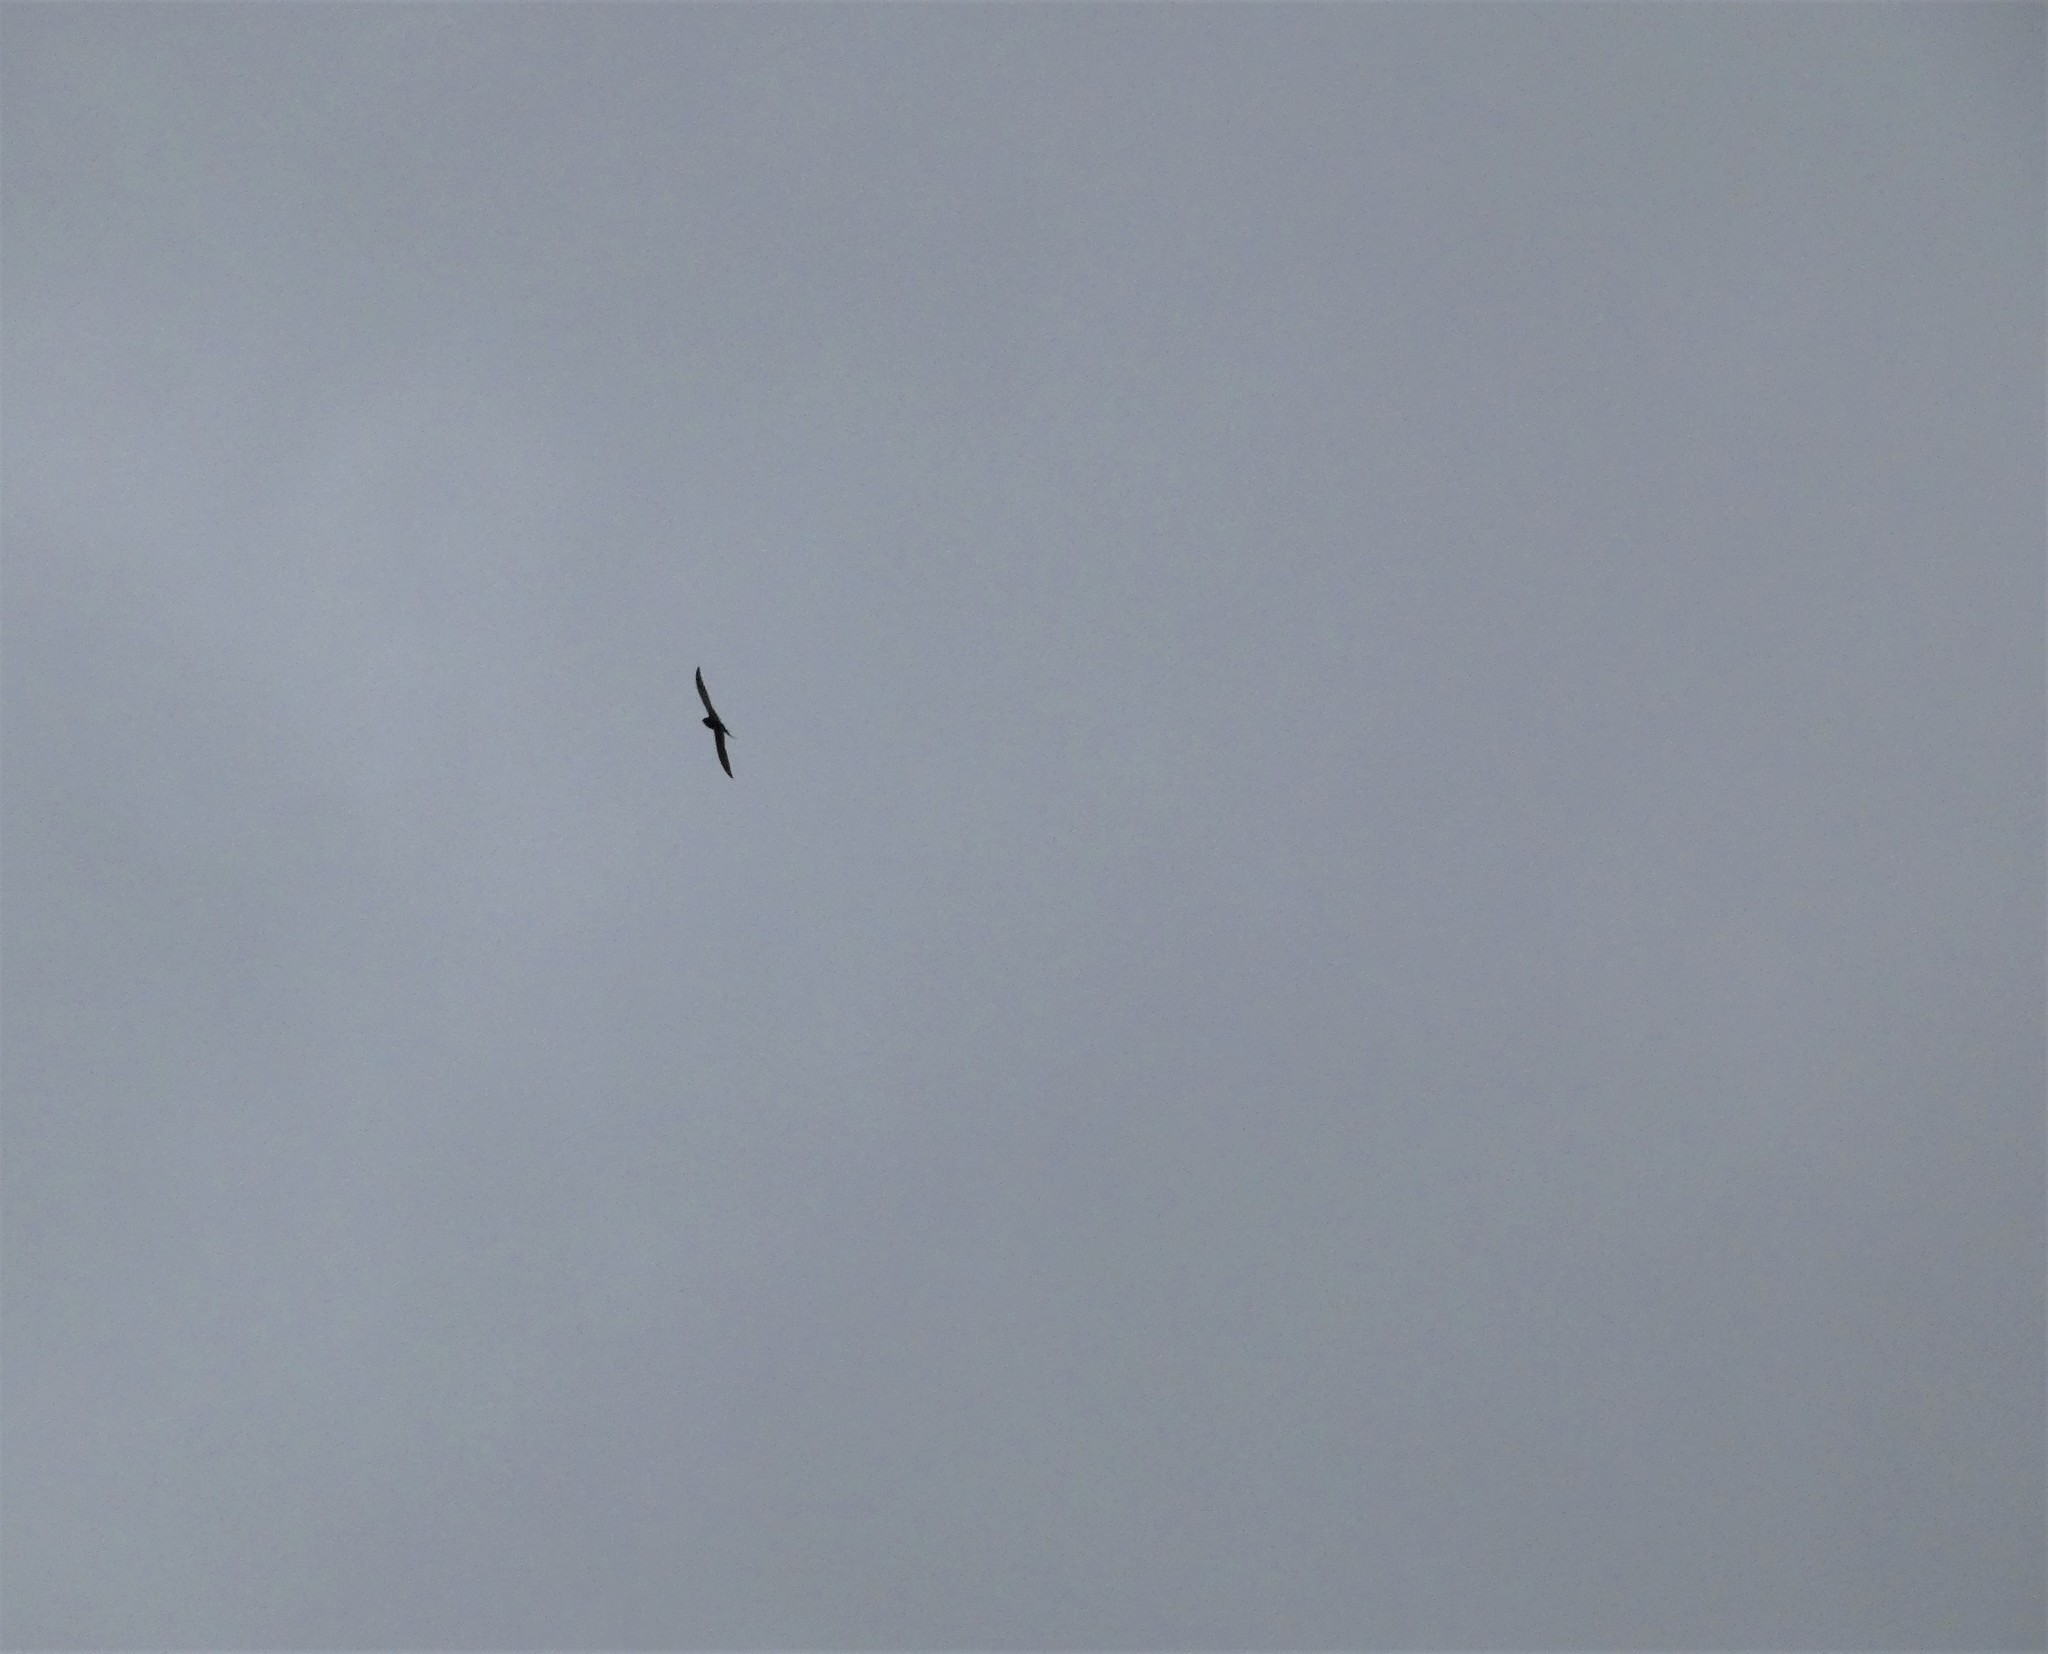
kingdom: Animalia
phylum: Chordata
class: Aves
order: Passeriformes
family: Hirundinidae
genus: Hirundo
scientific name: Hirundo rustica
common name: Barn swallow
